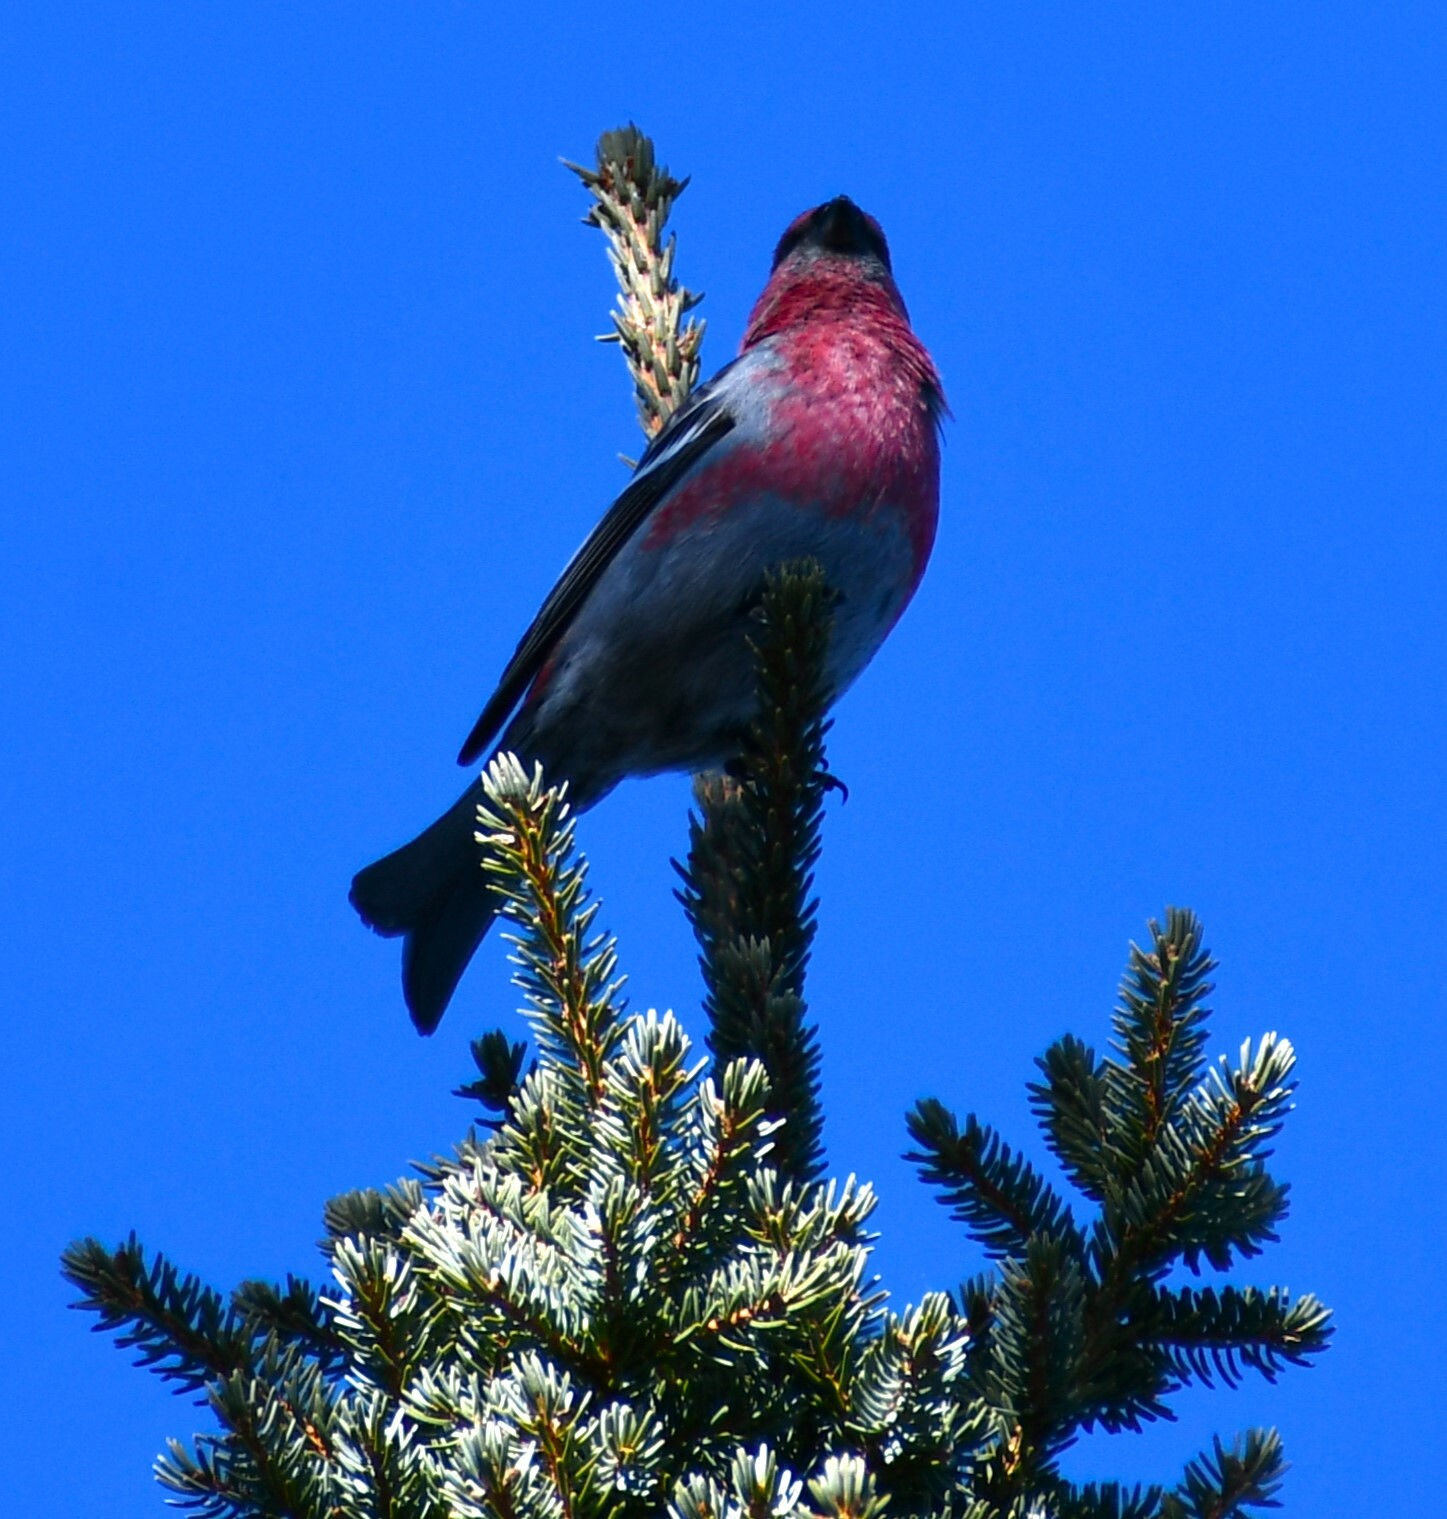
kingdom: Animalia
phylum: Chordata
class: Aves
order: Passeriformes
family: Fringillidae
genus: Pinicola
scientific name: Pinicola enucleator
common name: Pine grosbeak
